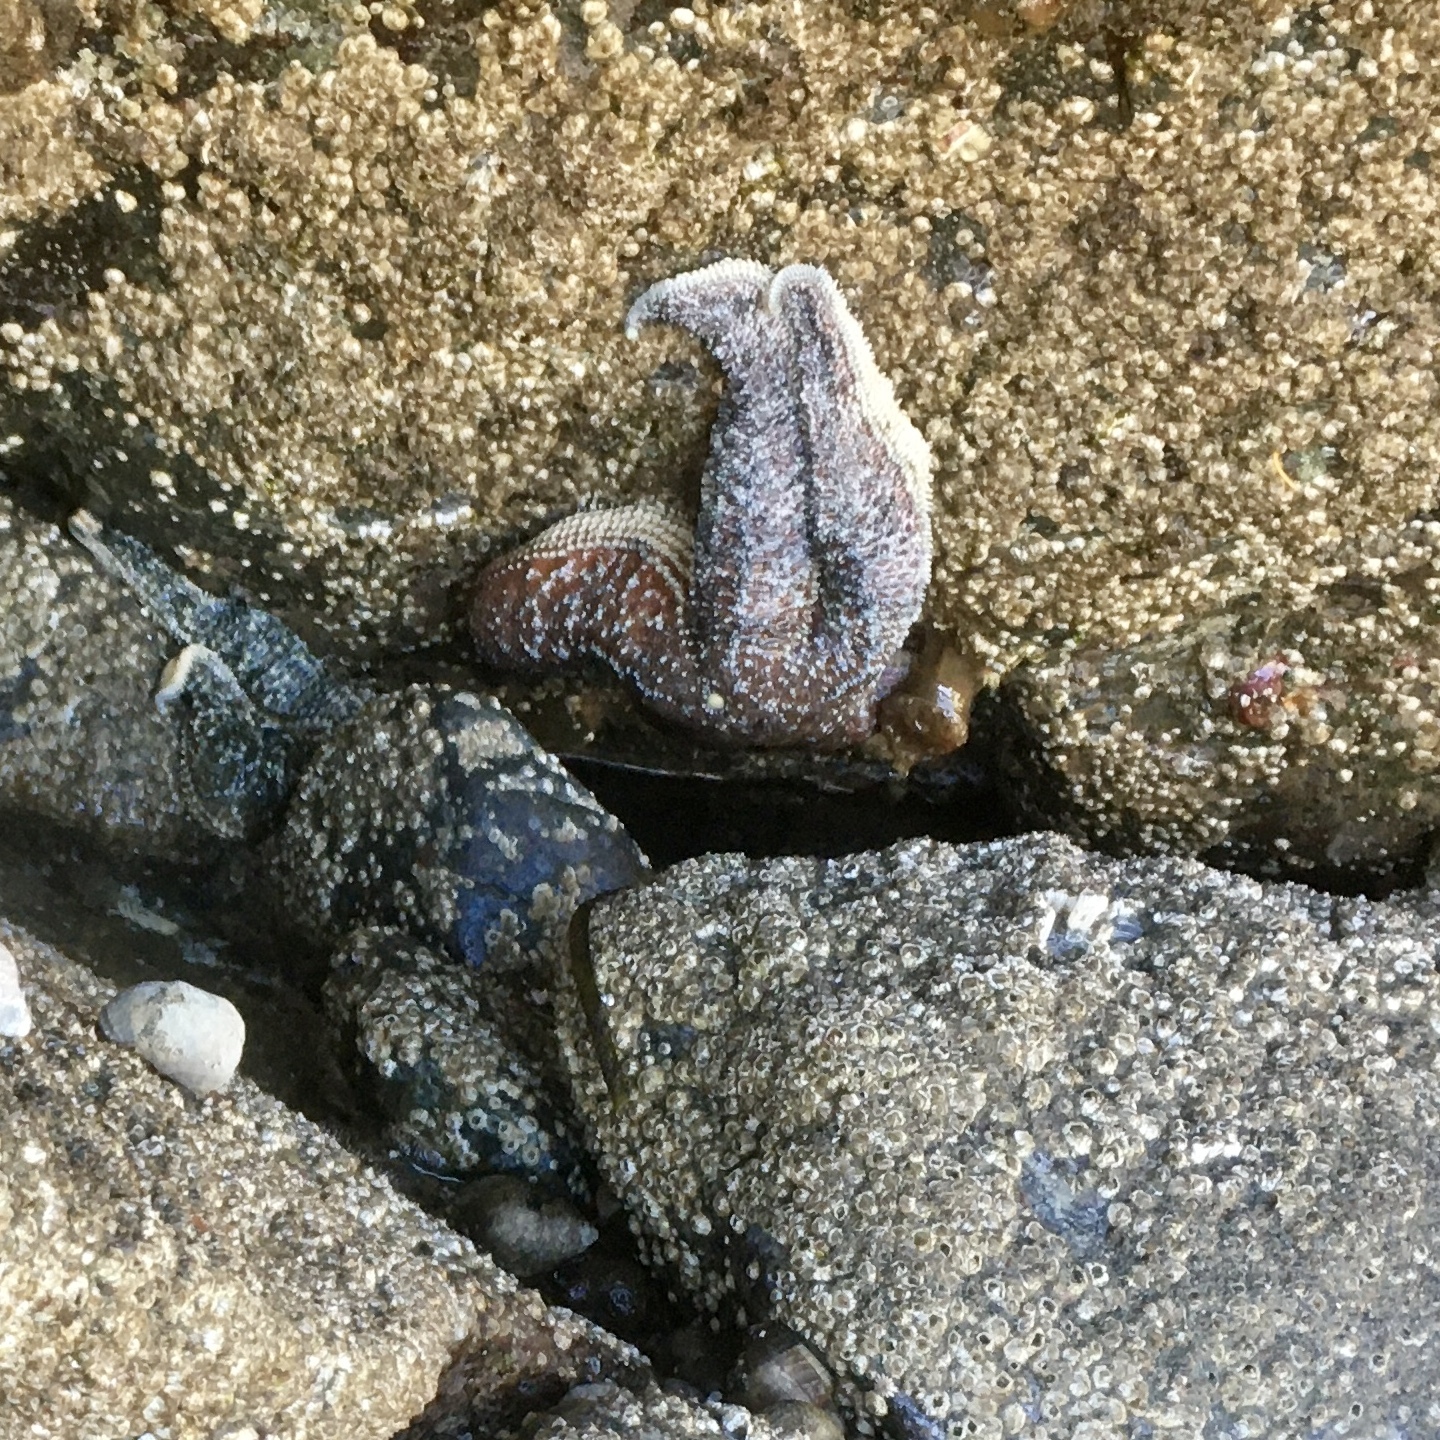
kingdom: Animalia
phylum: Echinodermata
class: Asteroidea
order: Forcipulatida
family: Asteriidae
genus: Evasterias
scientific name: Evasterias troschelii
